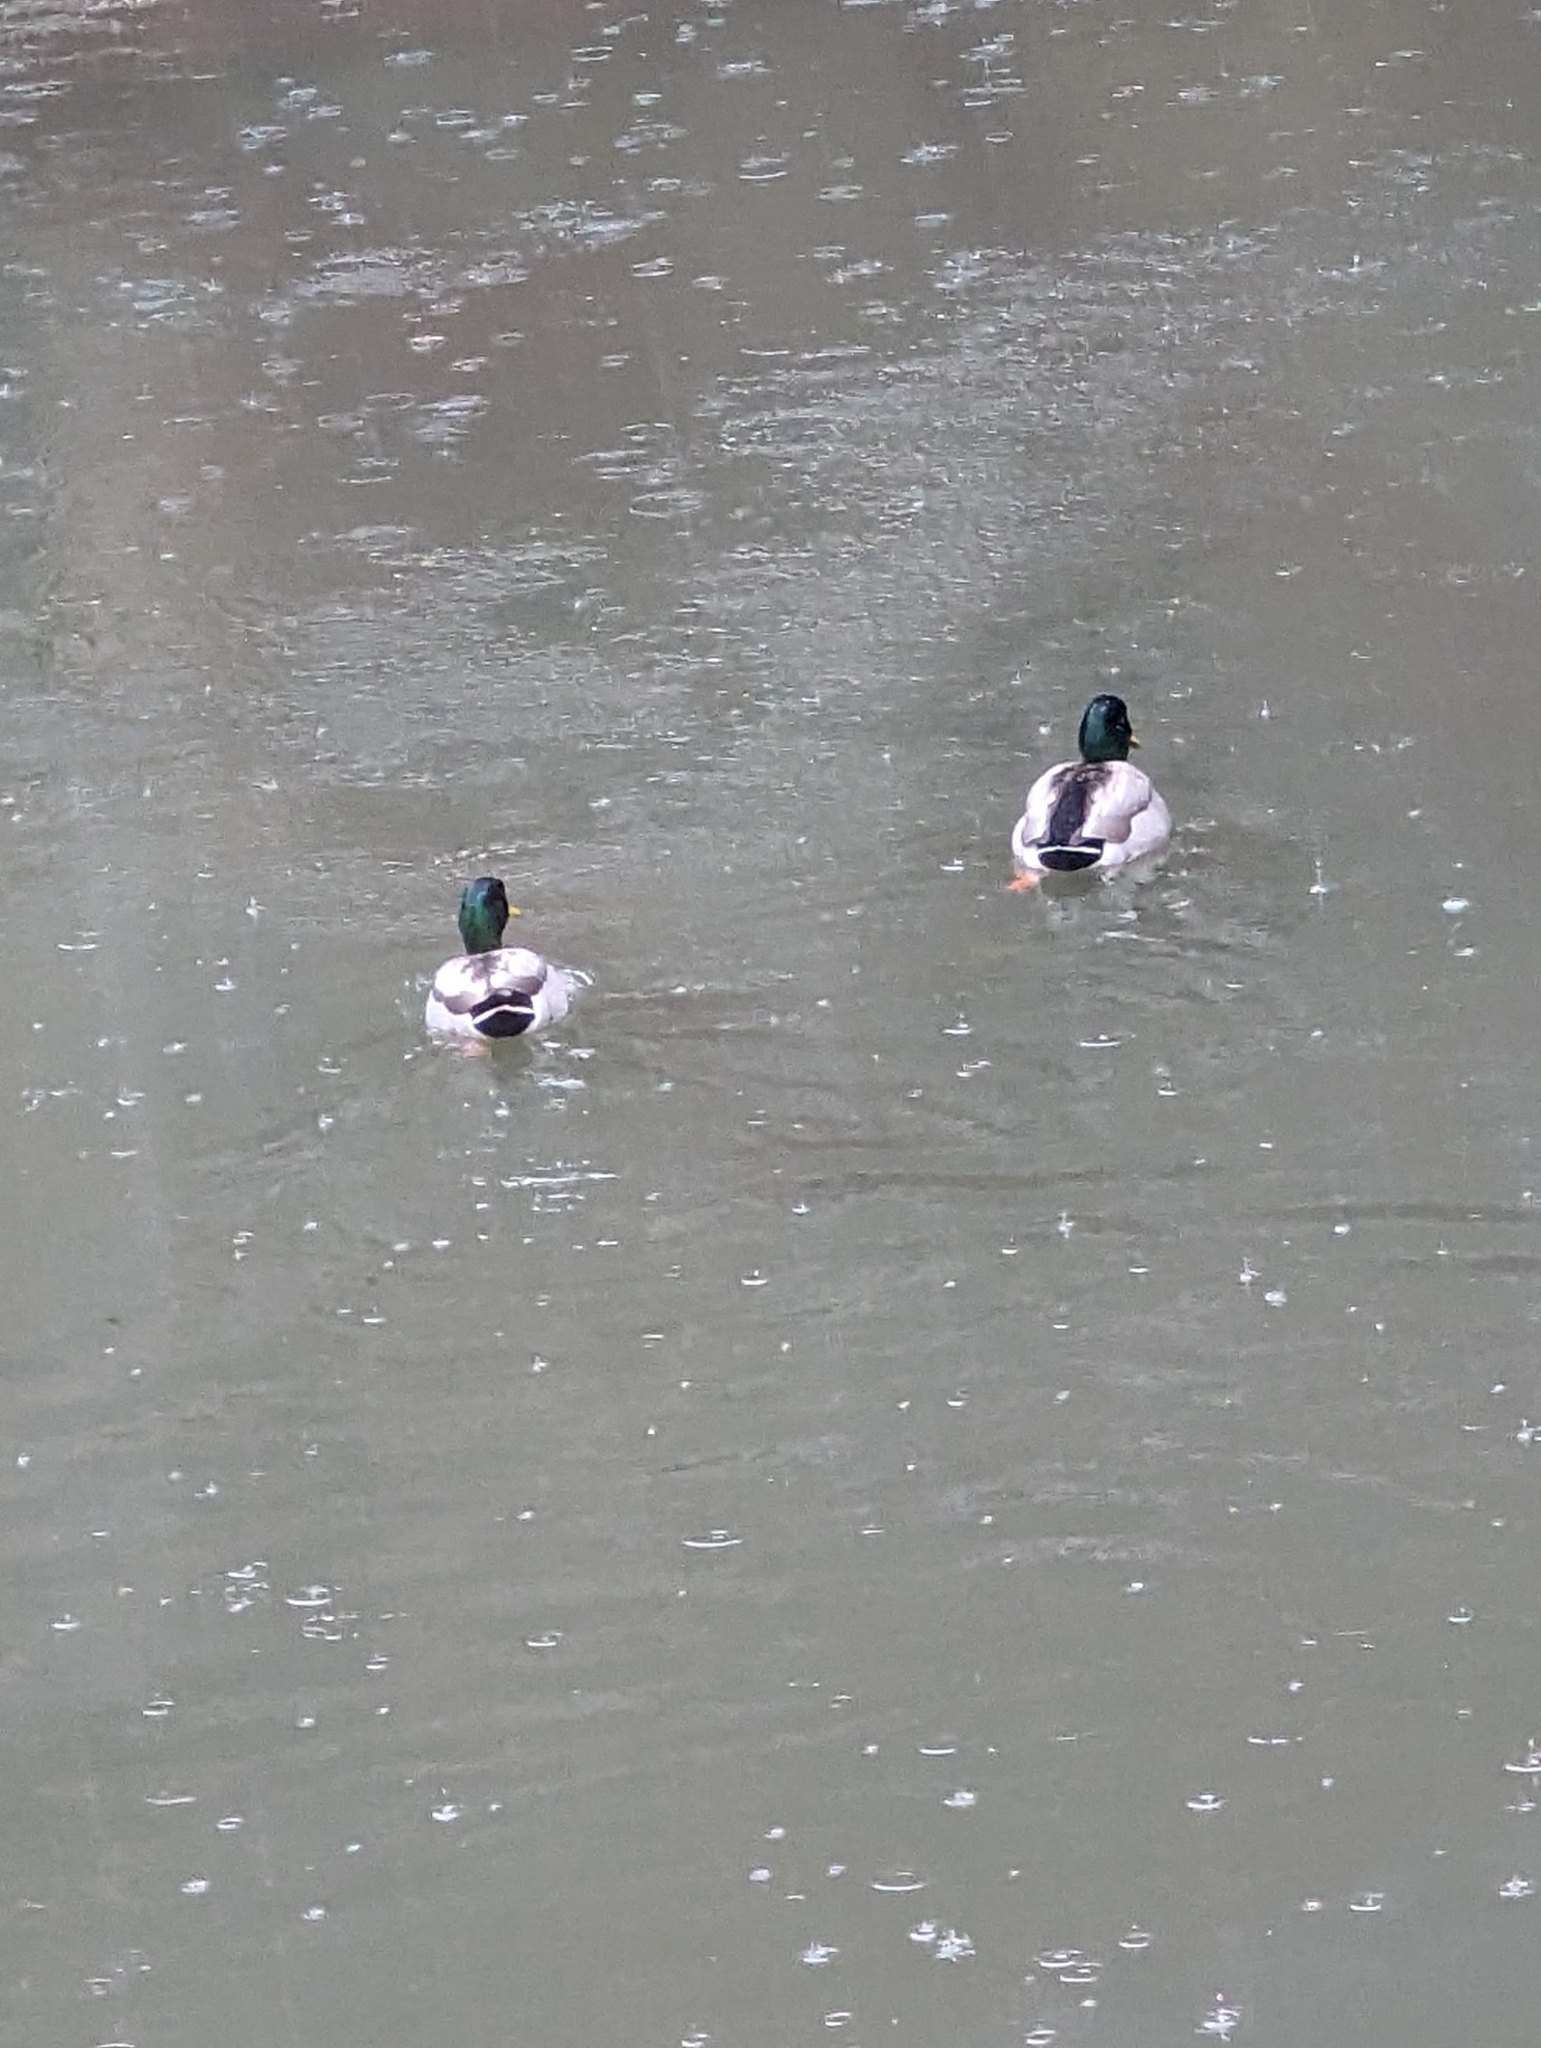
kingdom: Animalia
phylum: Chordata
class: Aves
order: Anseriformes
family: Anatidae
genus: Anas
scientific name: Anas platyrhynchos
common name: Mallard
